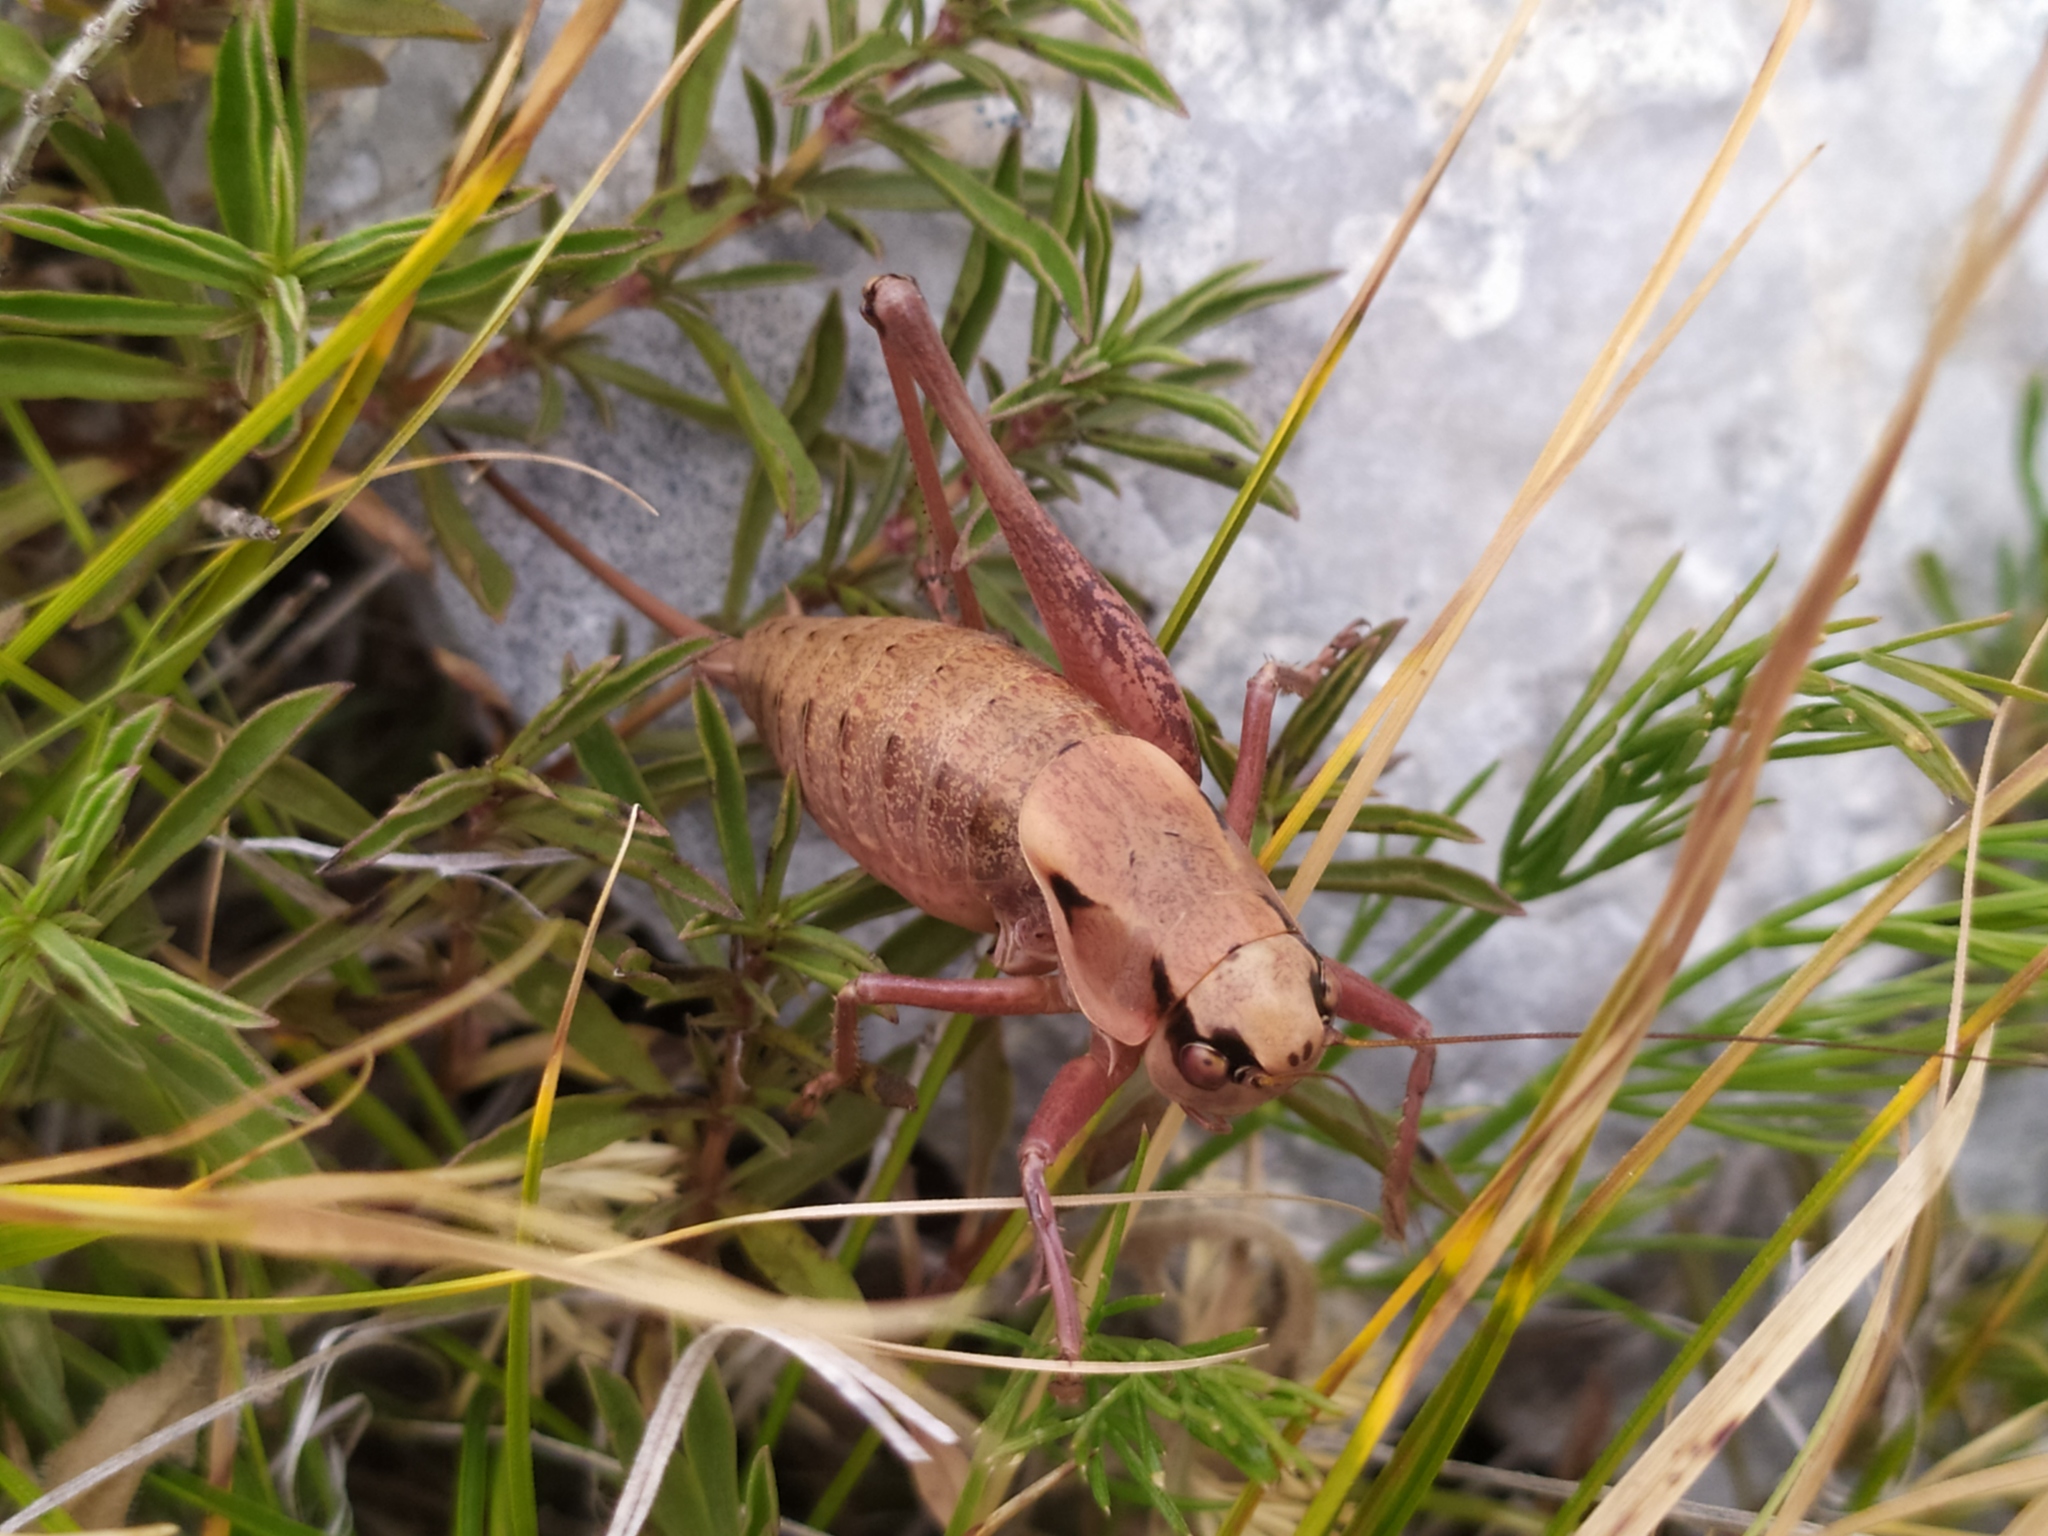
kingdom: Animalia
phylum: Arthropoda
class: Insecta
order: Orthoptera
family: Tettigoniidae
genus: Pholidoptera
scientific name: Pholidoptera dalmatica
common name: Dalmatian dark bush-cricket
